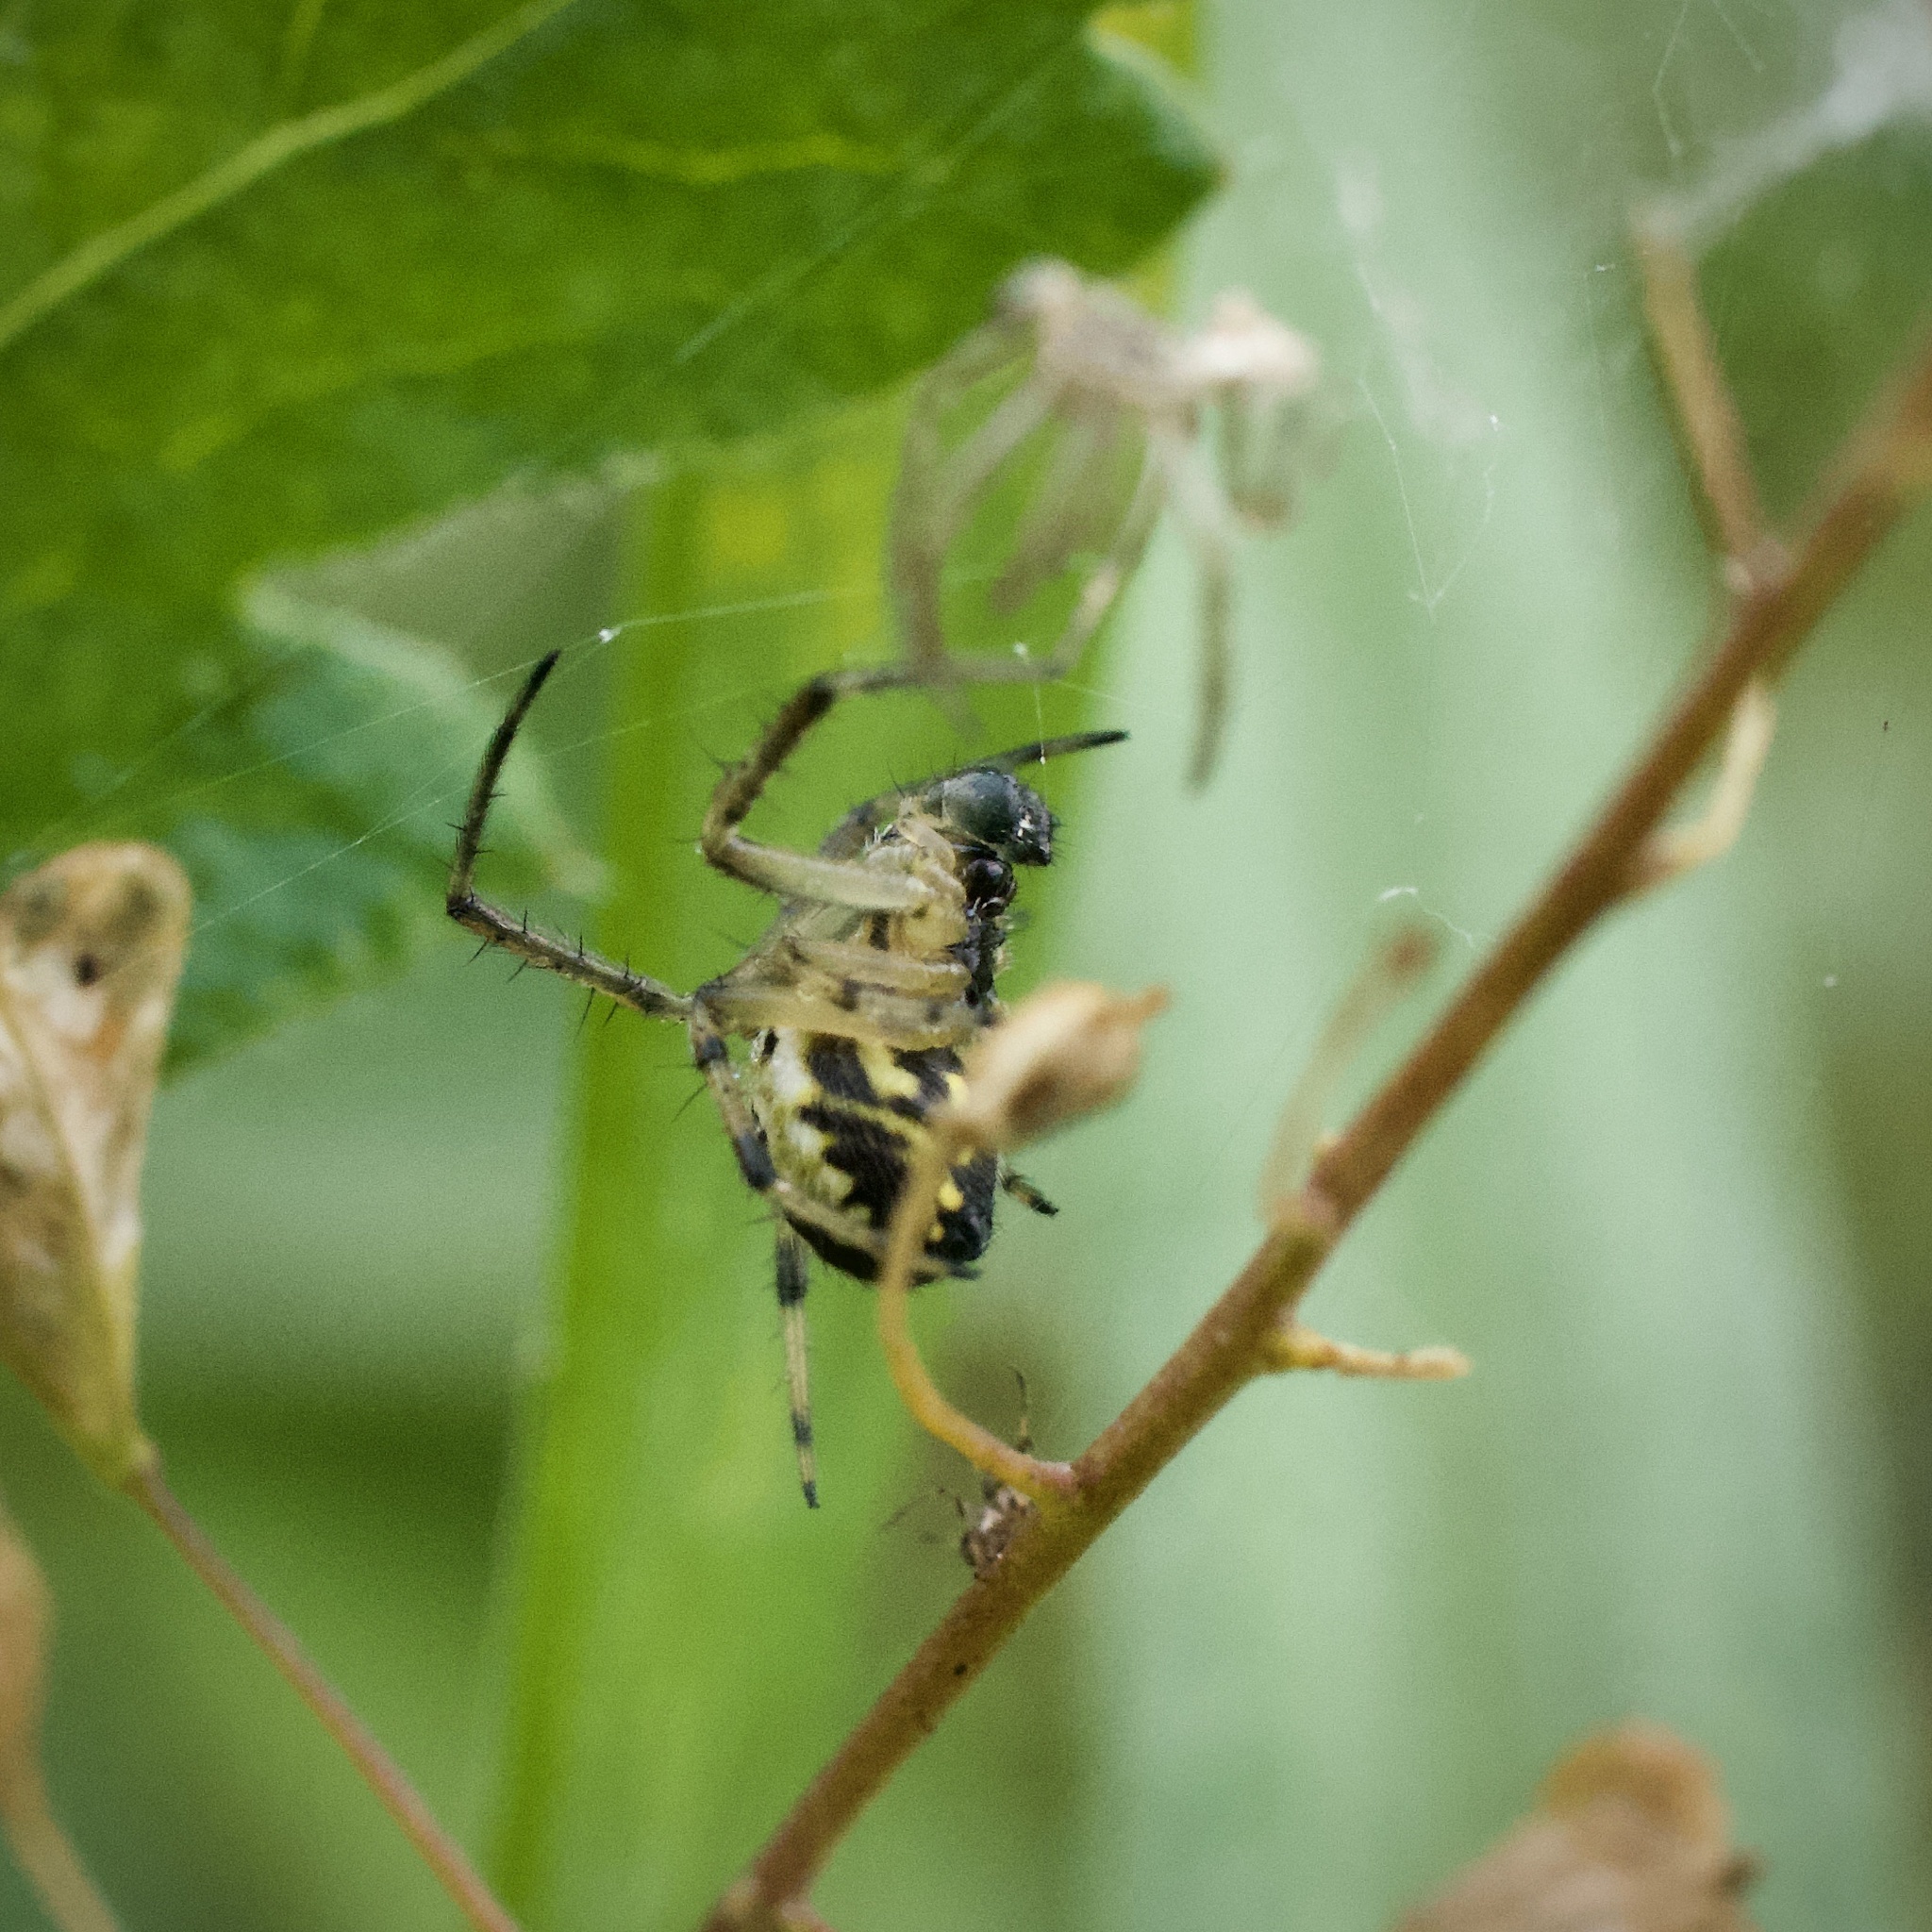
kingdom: Animalia
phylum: Arthropoda
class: Arachnida
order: Araneae
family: Araneidae
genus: Mangora
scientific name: Mangora acalypha
